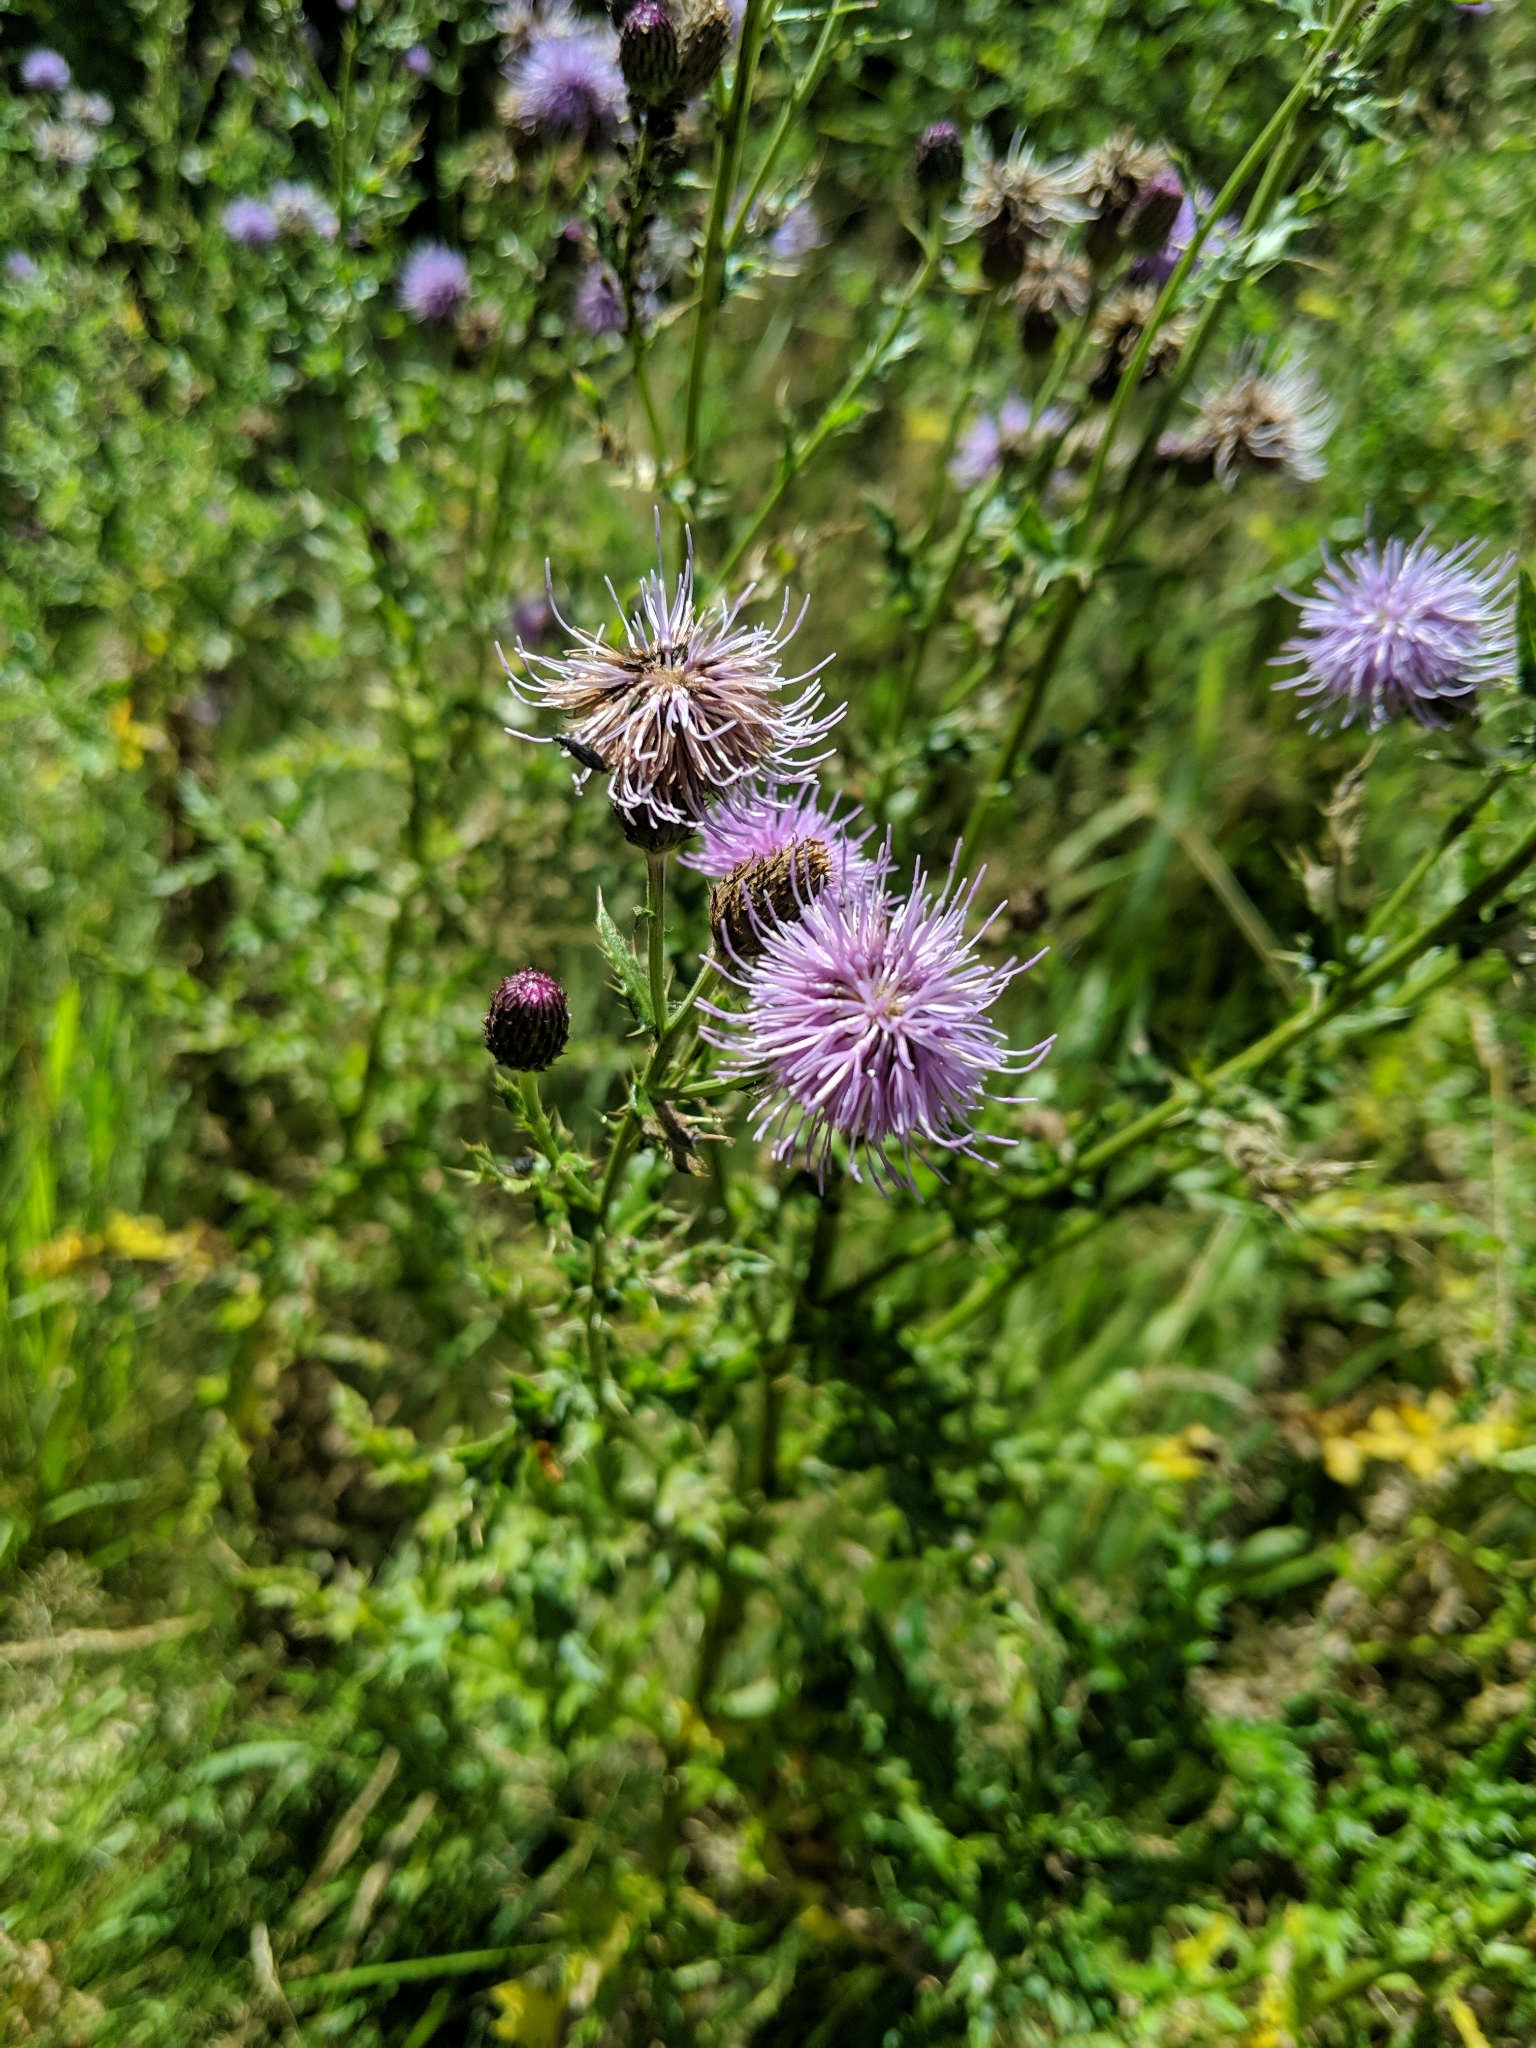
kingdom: Plantae
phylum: Tracheophyta
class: Magnoliopsida
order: Asterales
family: Asteraceae
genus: Cirsium
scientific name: Cirsium arvense
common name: Creeping thistle
